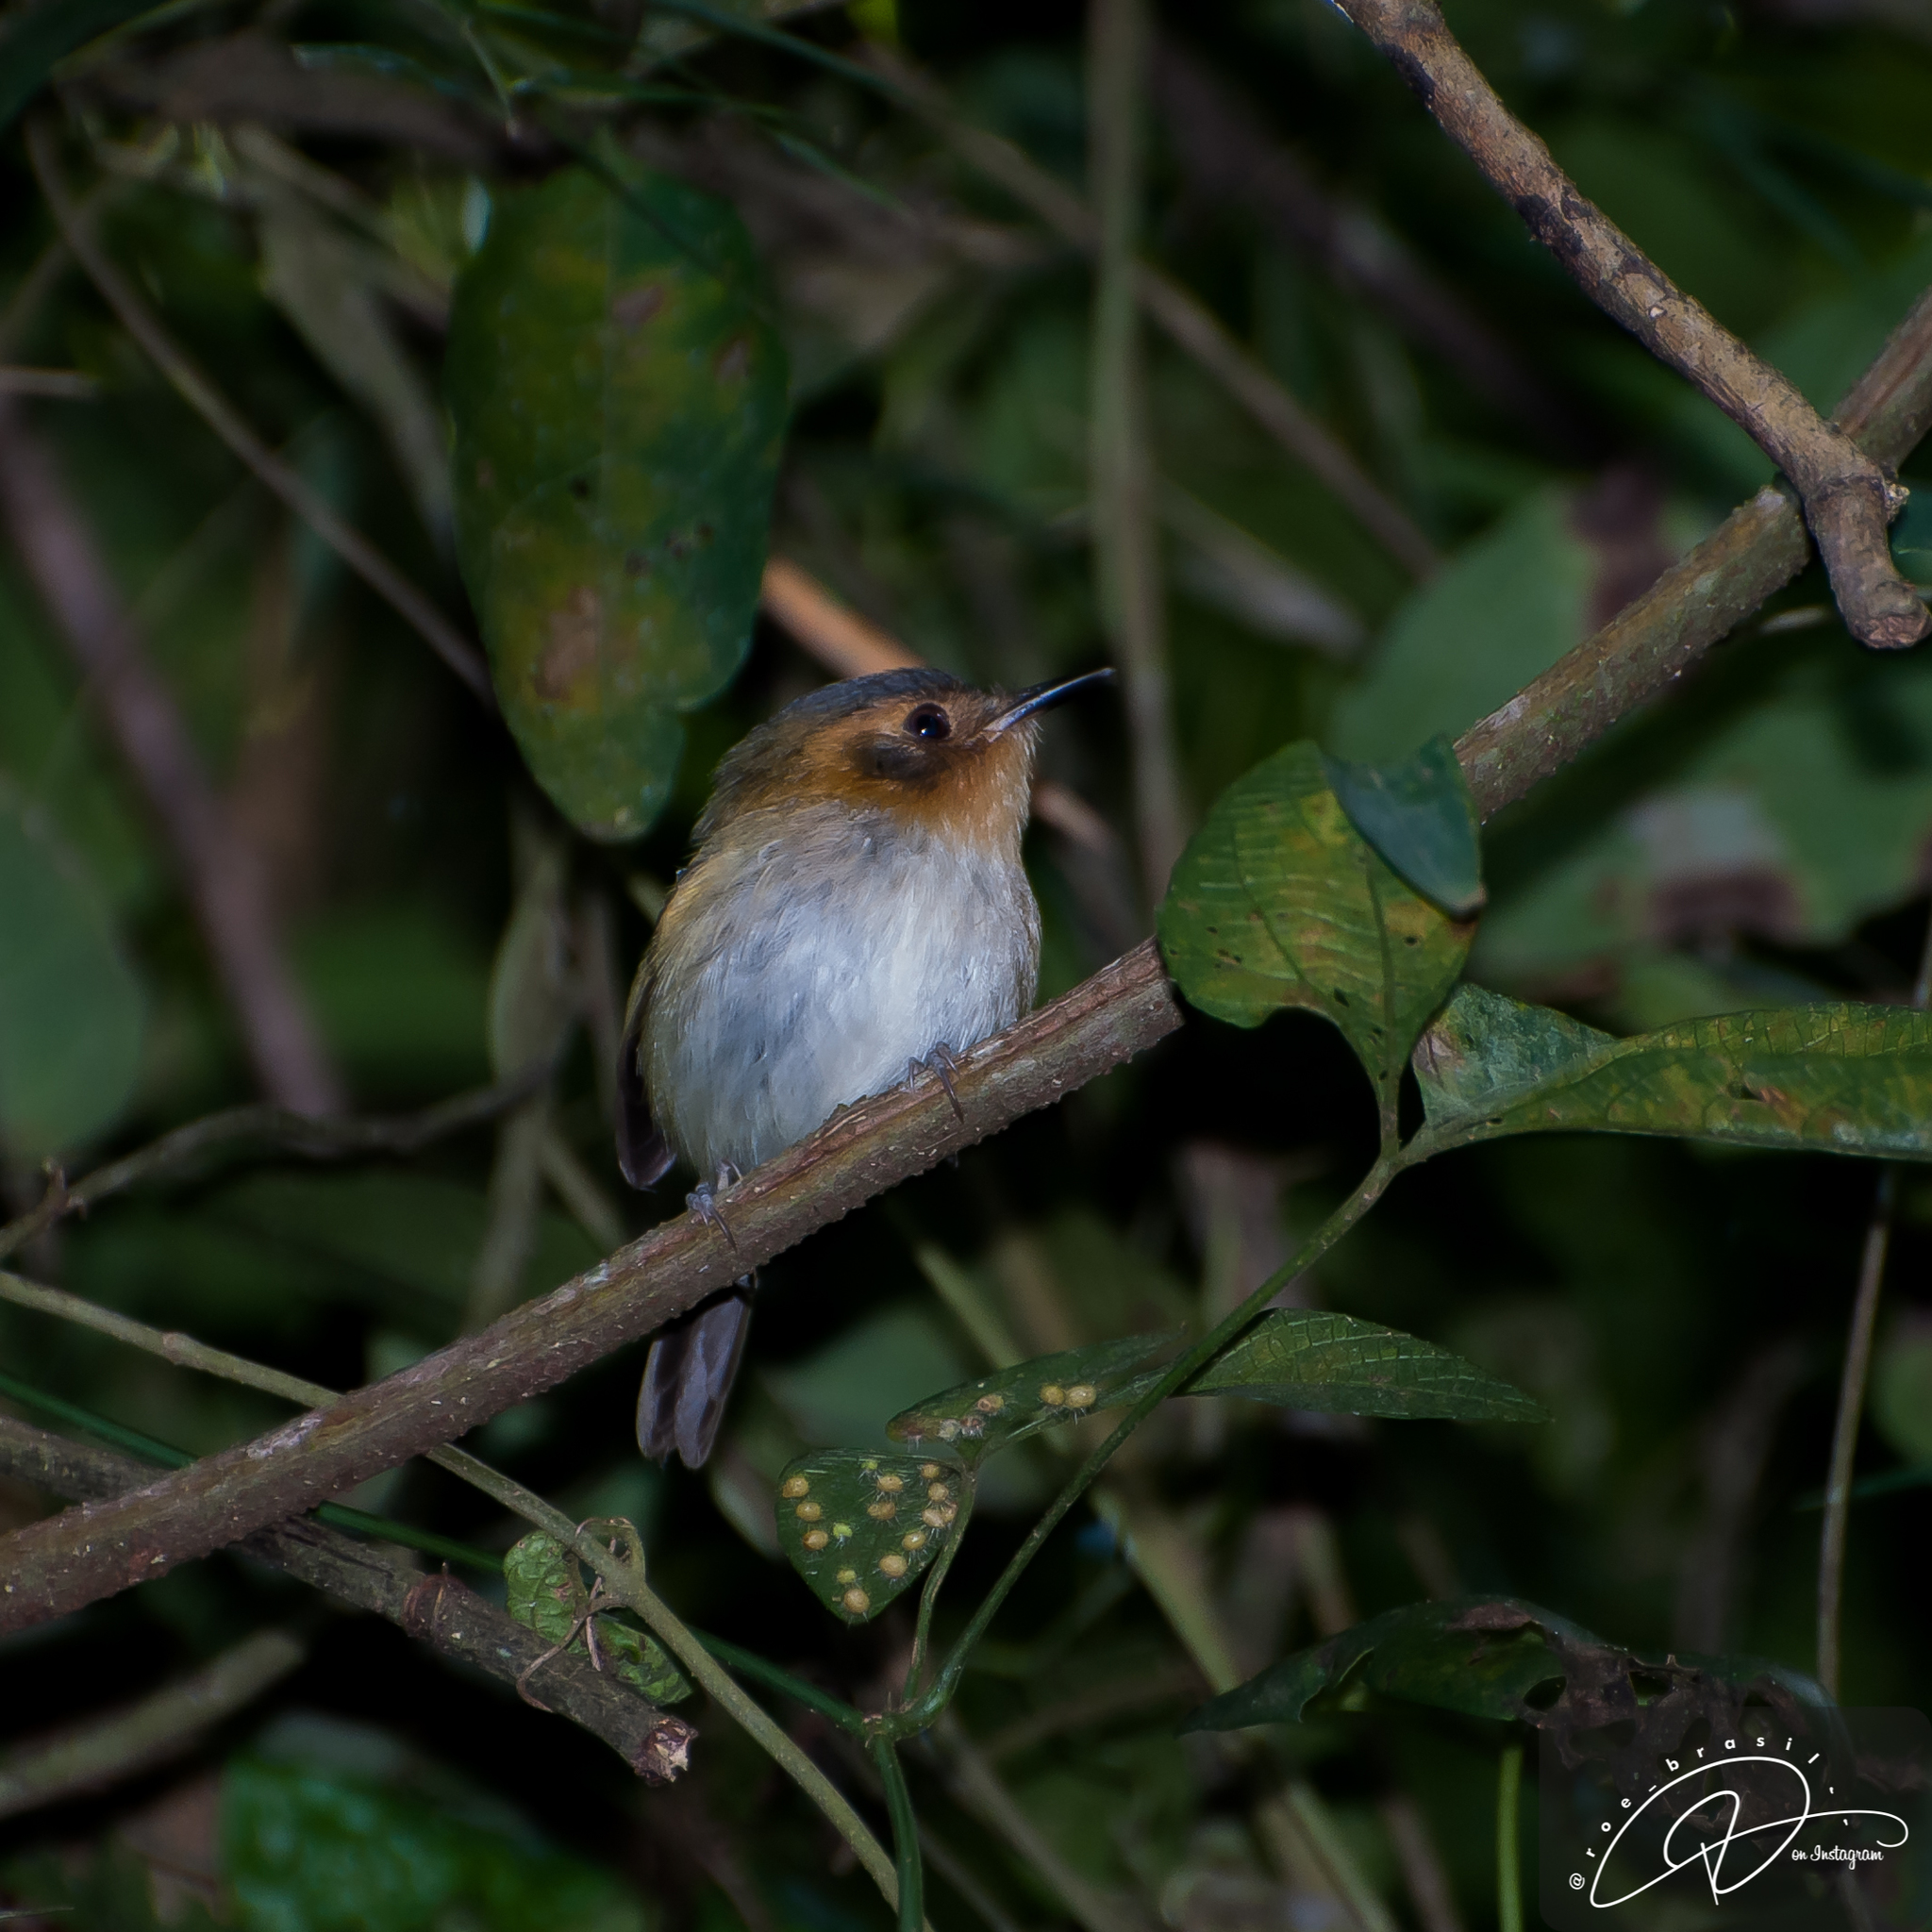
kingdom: Animalia
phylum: Chordata
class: Aves
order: Passeriformes
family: Tyrannidae
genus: Poecilotriccus
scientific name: Poecilotriccus plumbeiceps
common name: Ochre-faced tody-flycatcher
